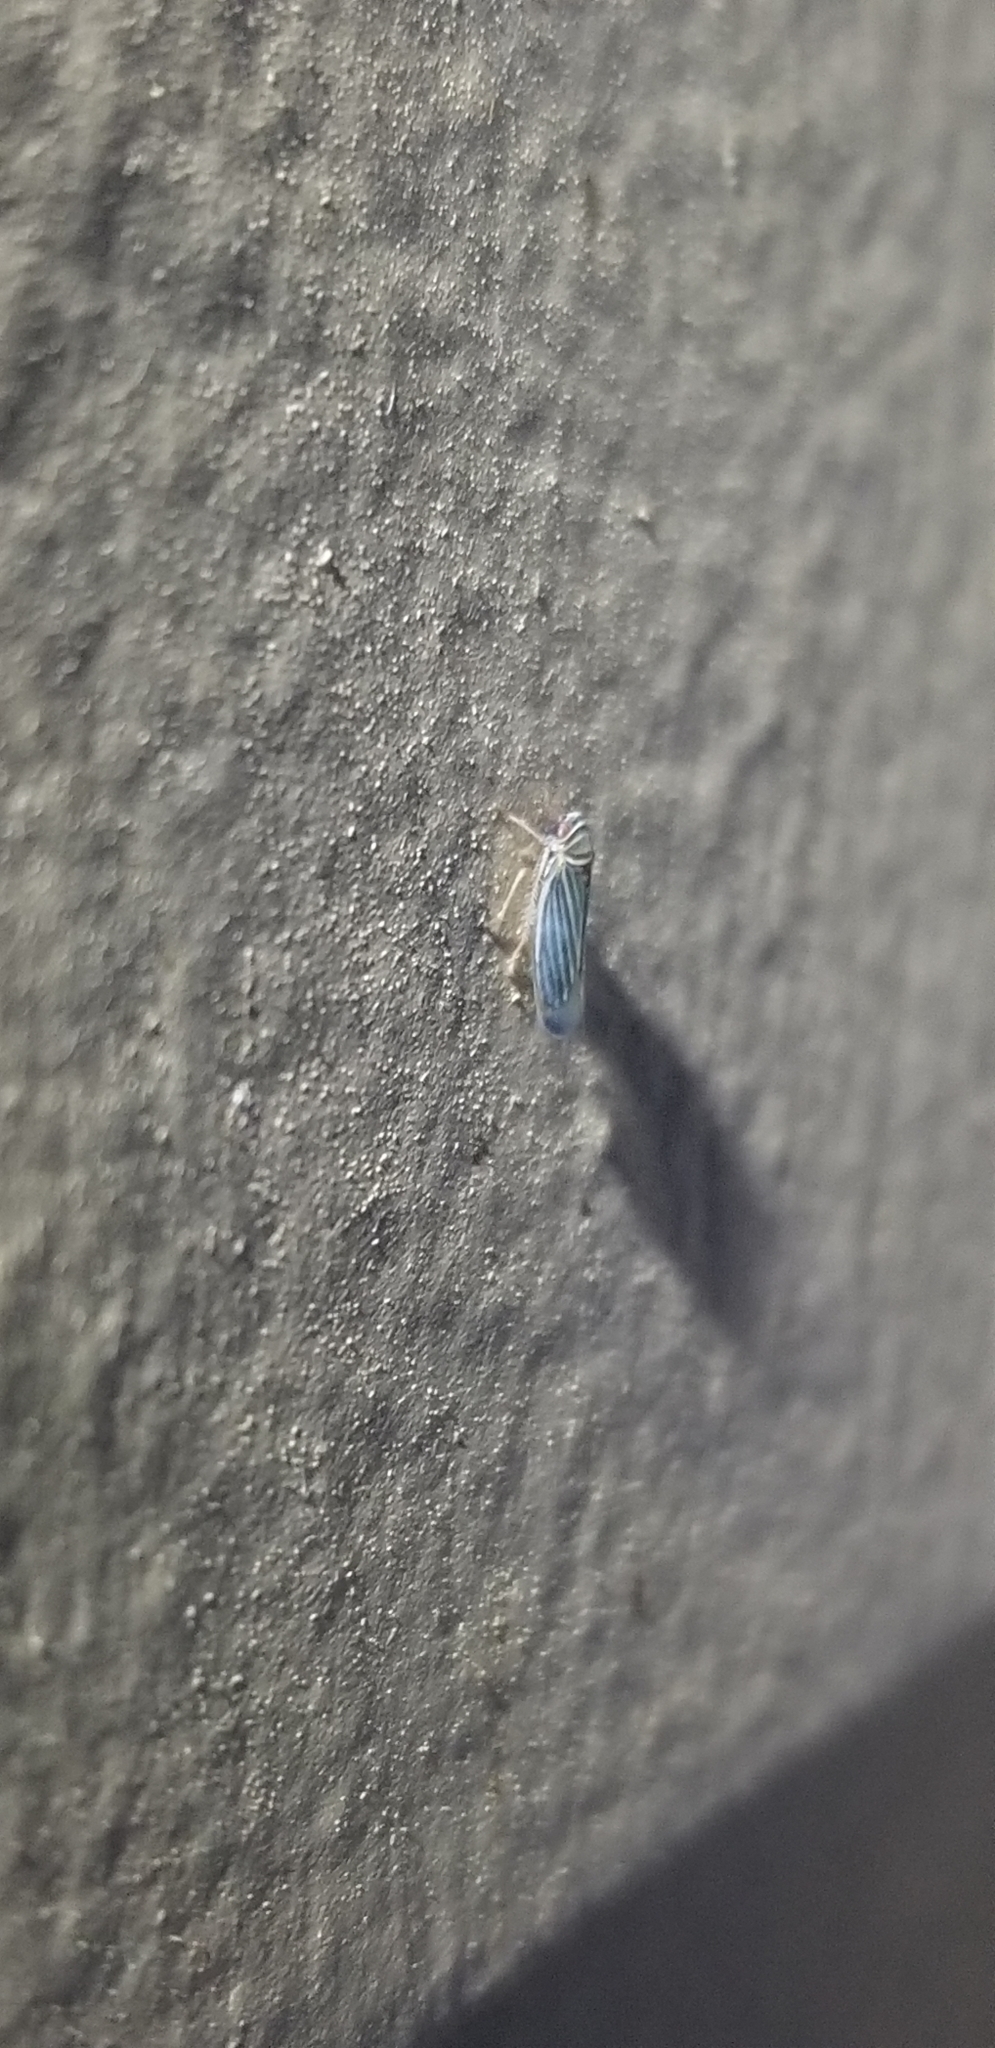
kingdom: Animalia
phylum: Arthropoda
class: Insecta
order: Hemiptera
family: Cicadellidae
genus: Tylozygus
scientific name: Tylozygus bifidus
